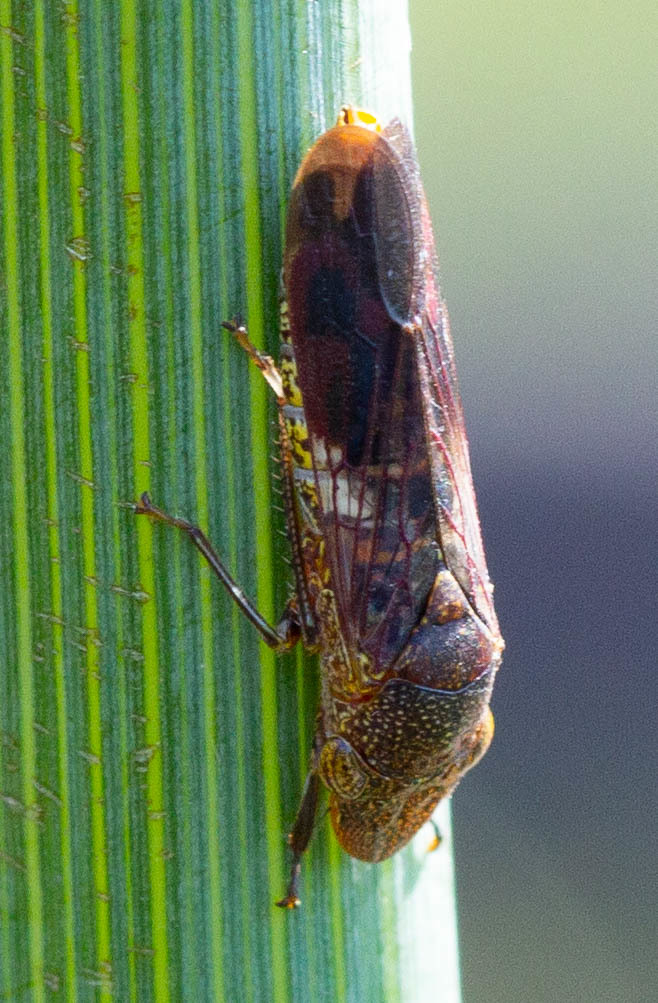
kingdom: Animalia
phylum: Arthropoda
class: Insecta
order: Hemiptera
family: Cicadellidae
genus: Homalodisca
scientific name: Homalodisca vitripennis
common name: Glassy-winged sharpshooter
